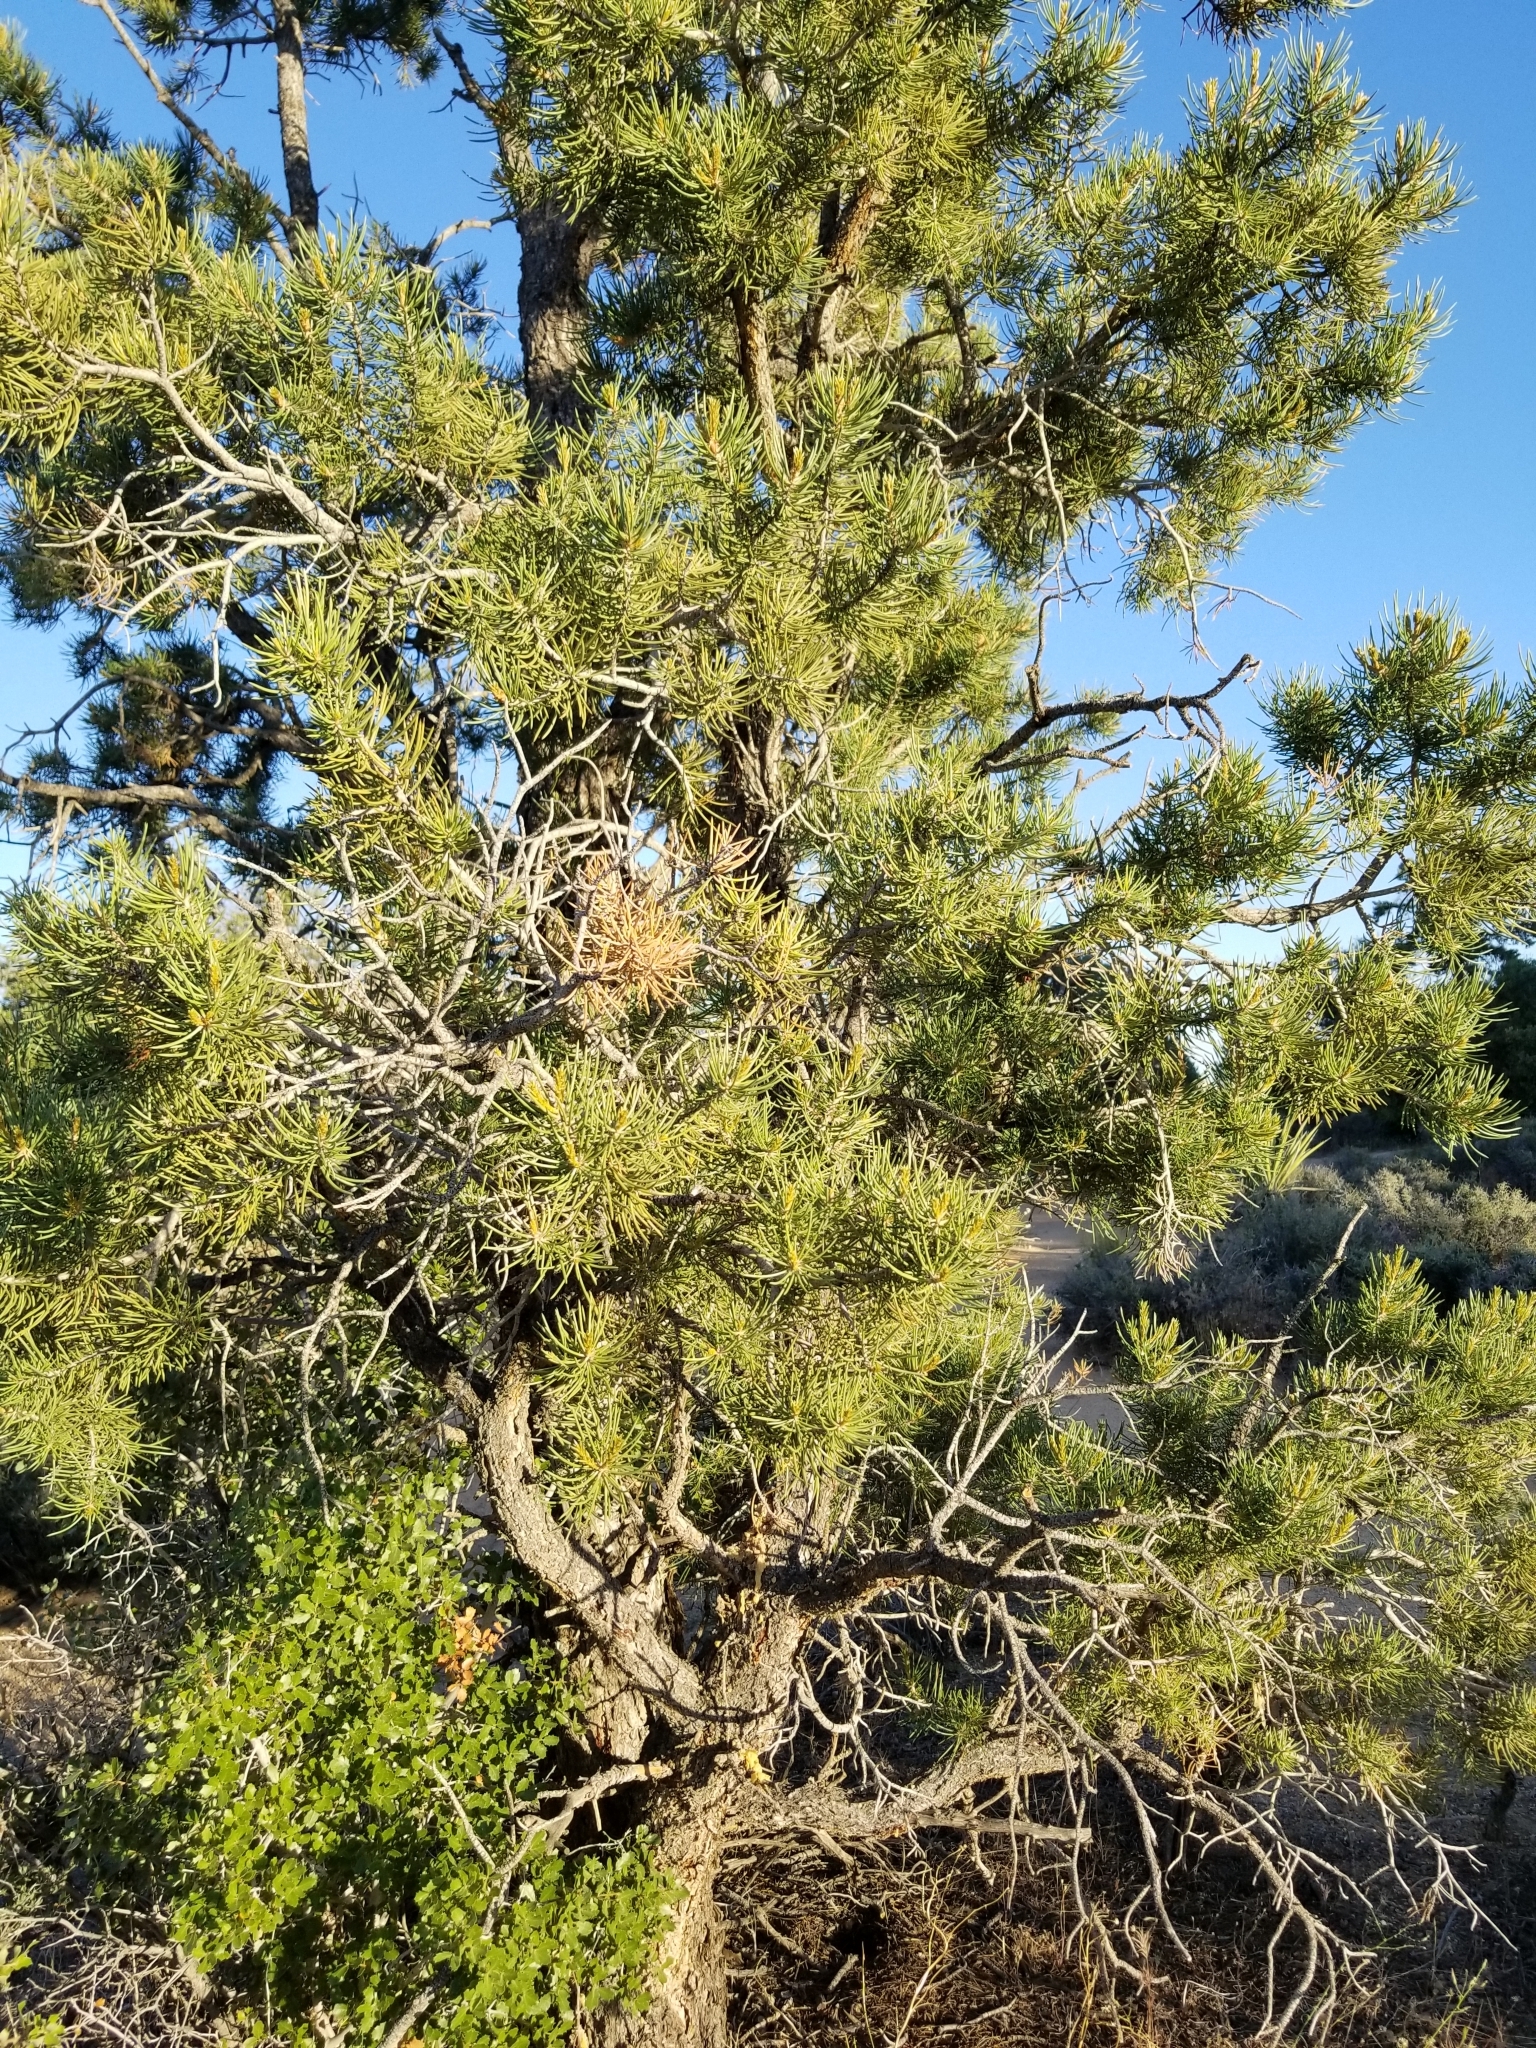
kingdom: Plantae
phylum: Tracheophyta
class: Pinopsida
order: Pinales
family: Pinaceae
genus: Pinus
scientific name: Pinus monophylla
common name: One-leaved nut pine
